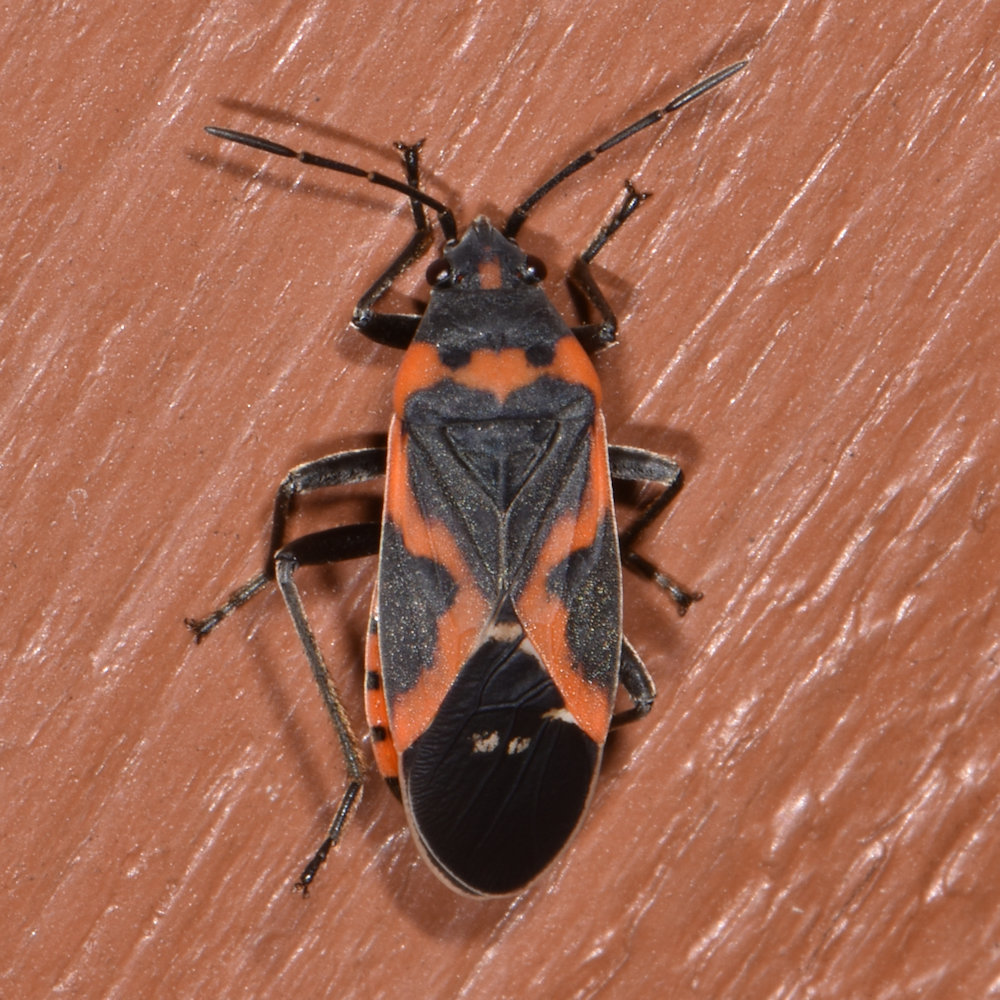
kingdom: Animalia
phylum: Arthropoda
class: Insecta
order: Hemiptera
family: Lygaeidae
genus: Lygaeus
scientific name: Lygaeus kalmii
